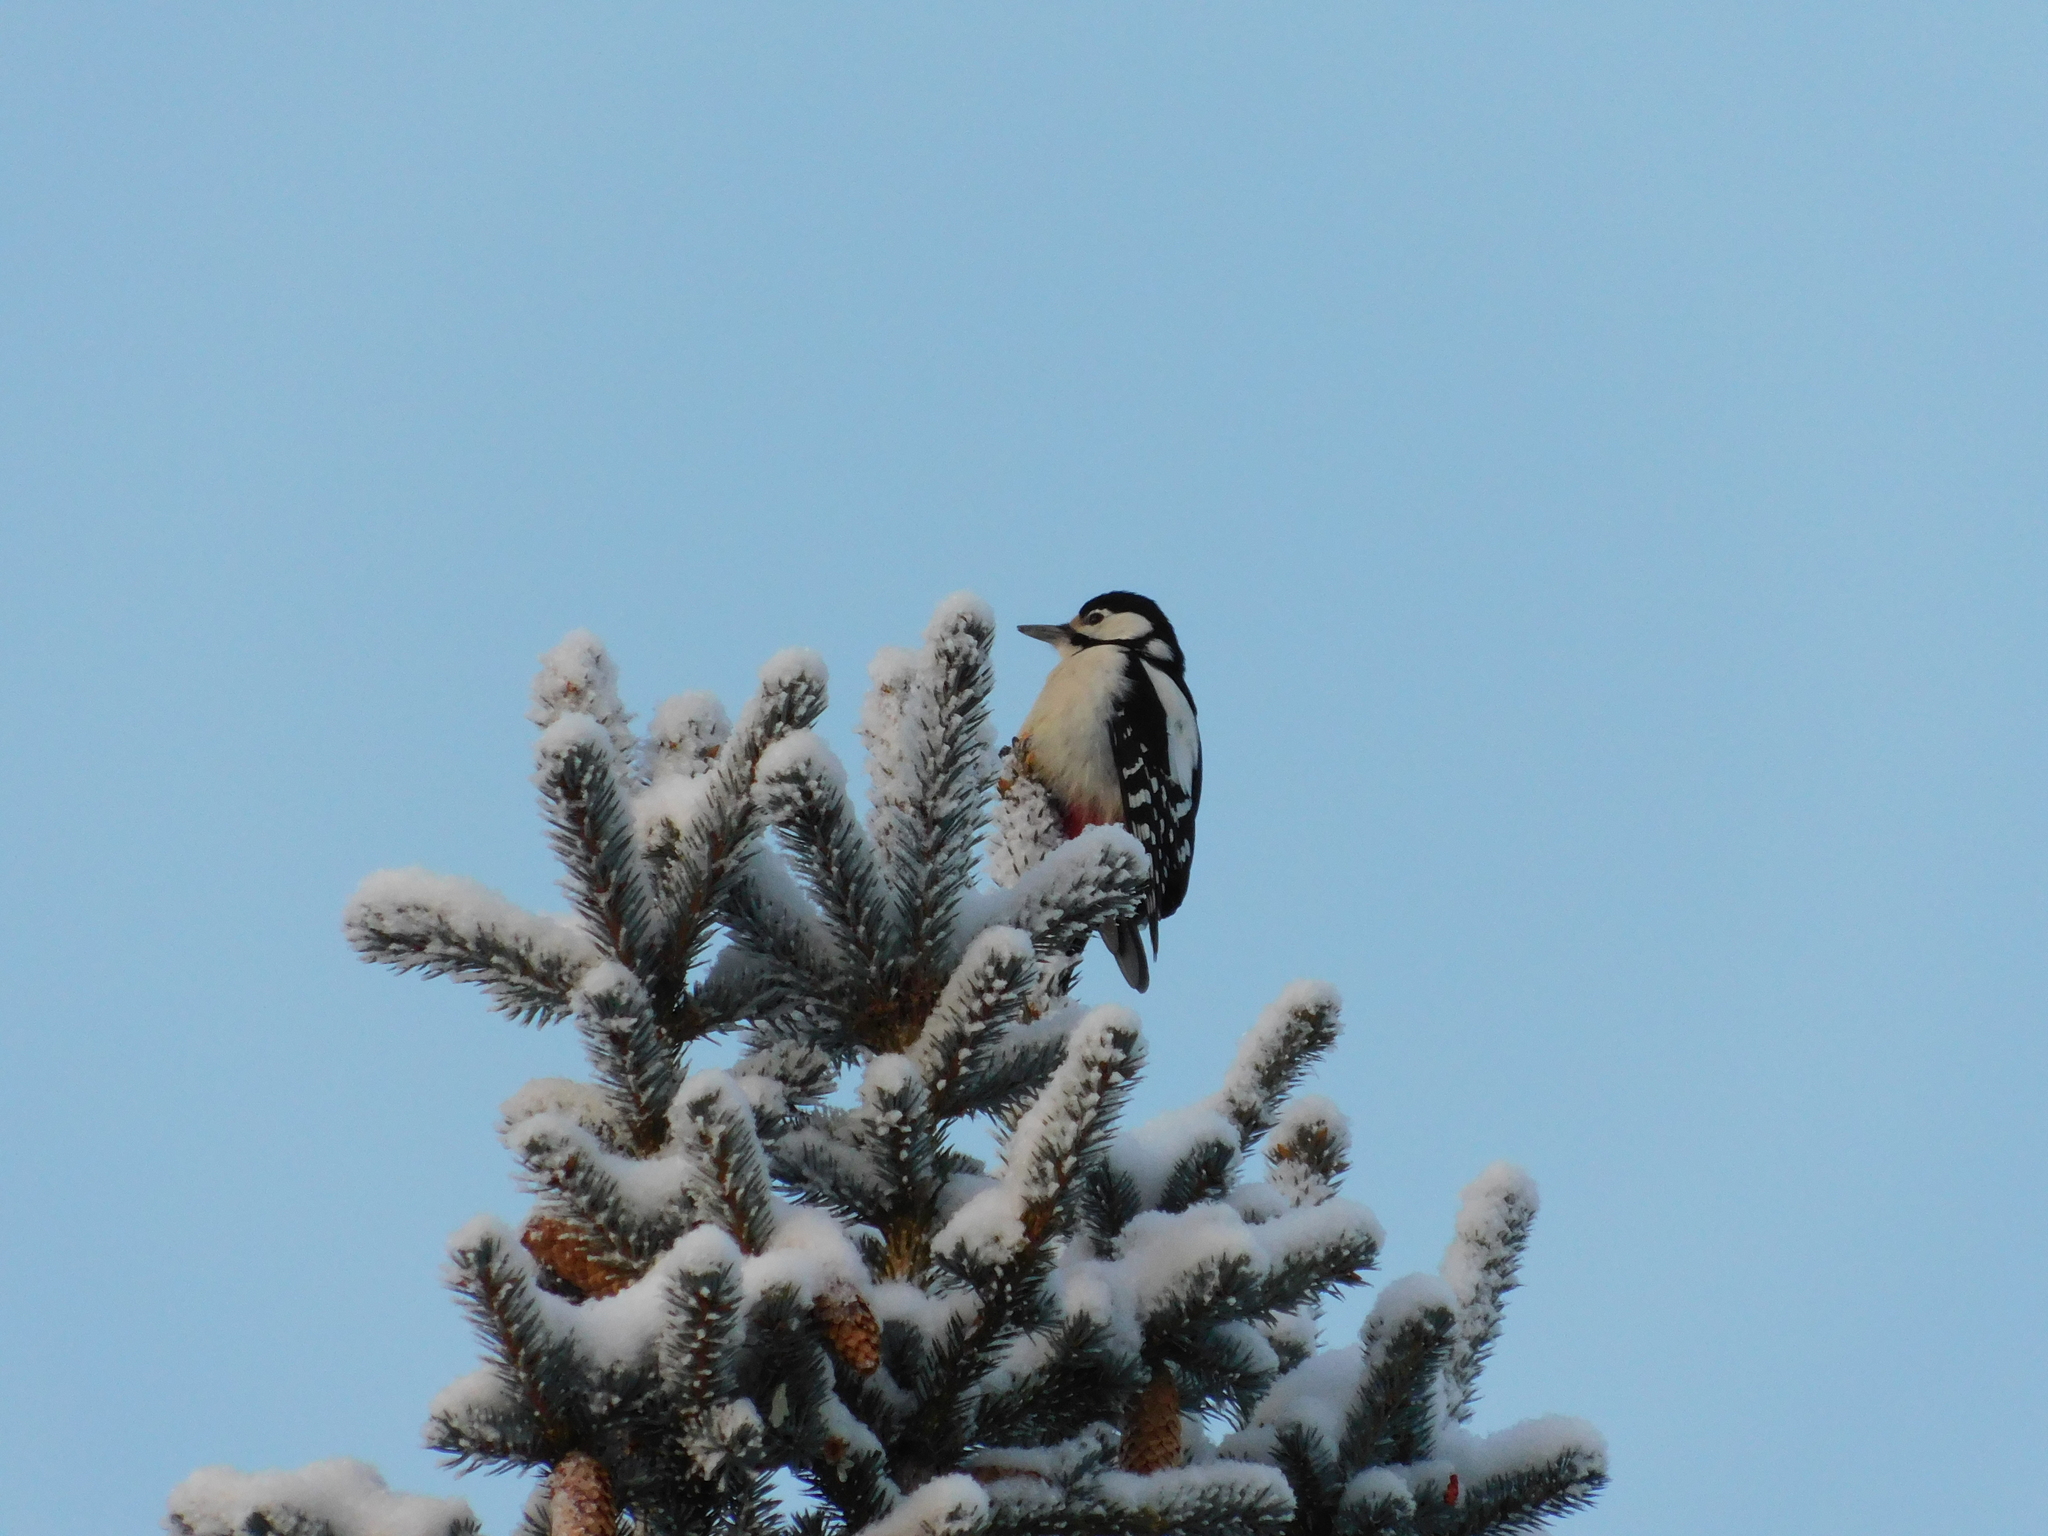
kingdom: Animalia
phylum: Chordata
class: Aves
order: Piciformes
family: Picidae
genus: Dendrocopos
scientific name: Dendrocopos major
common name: Great spotted woodpecker
